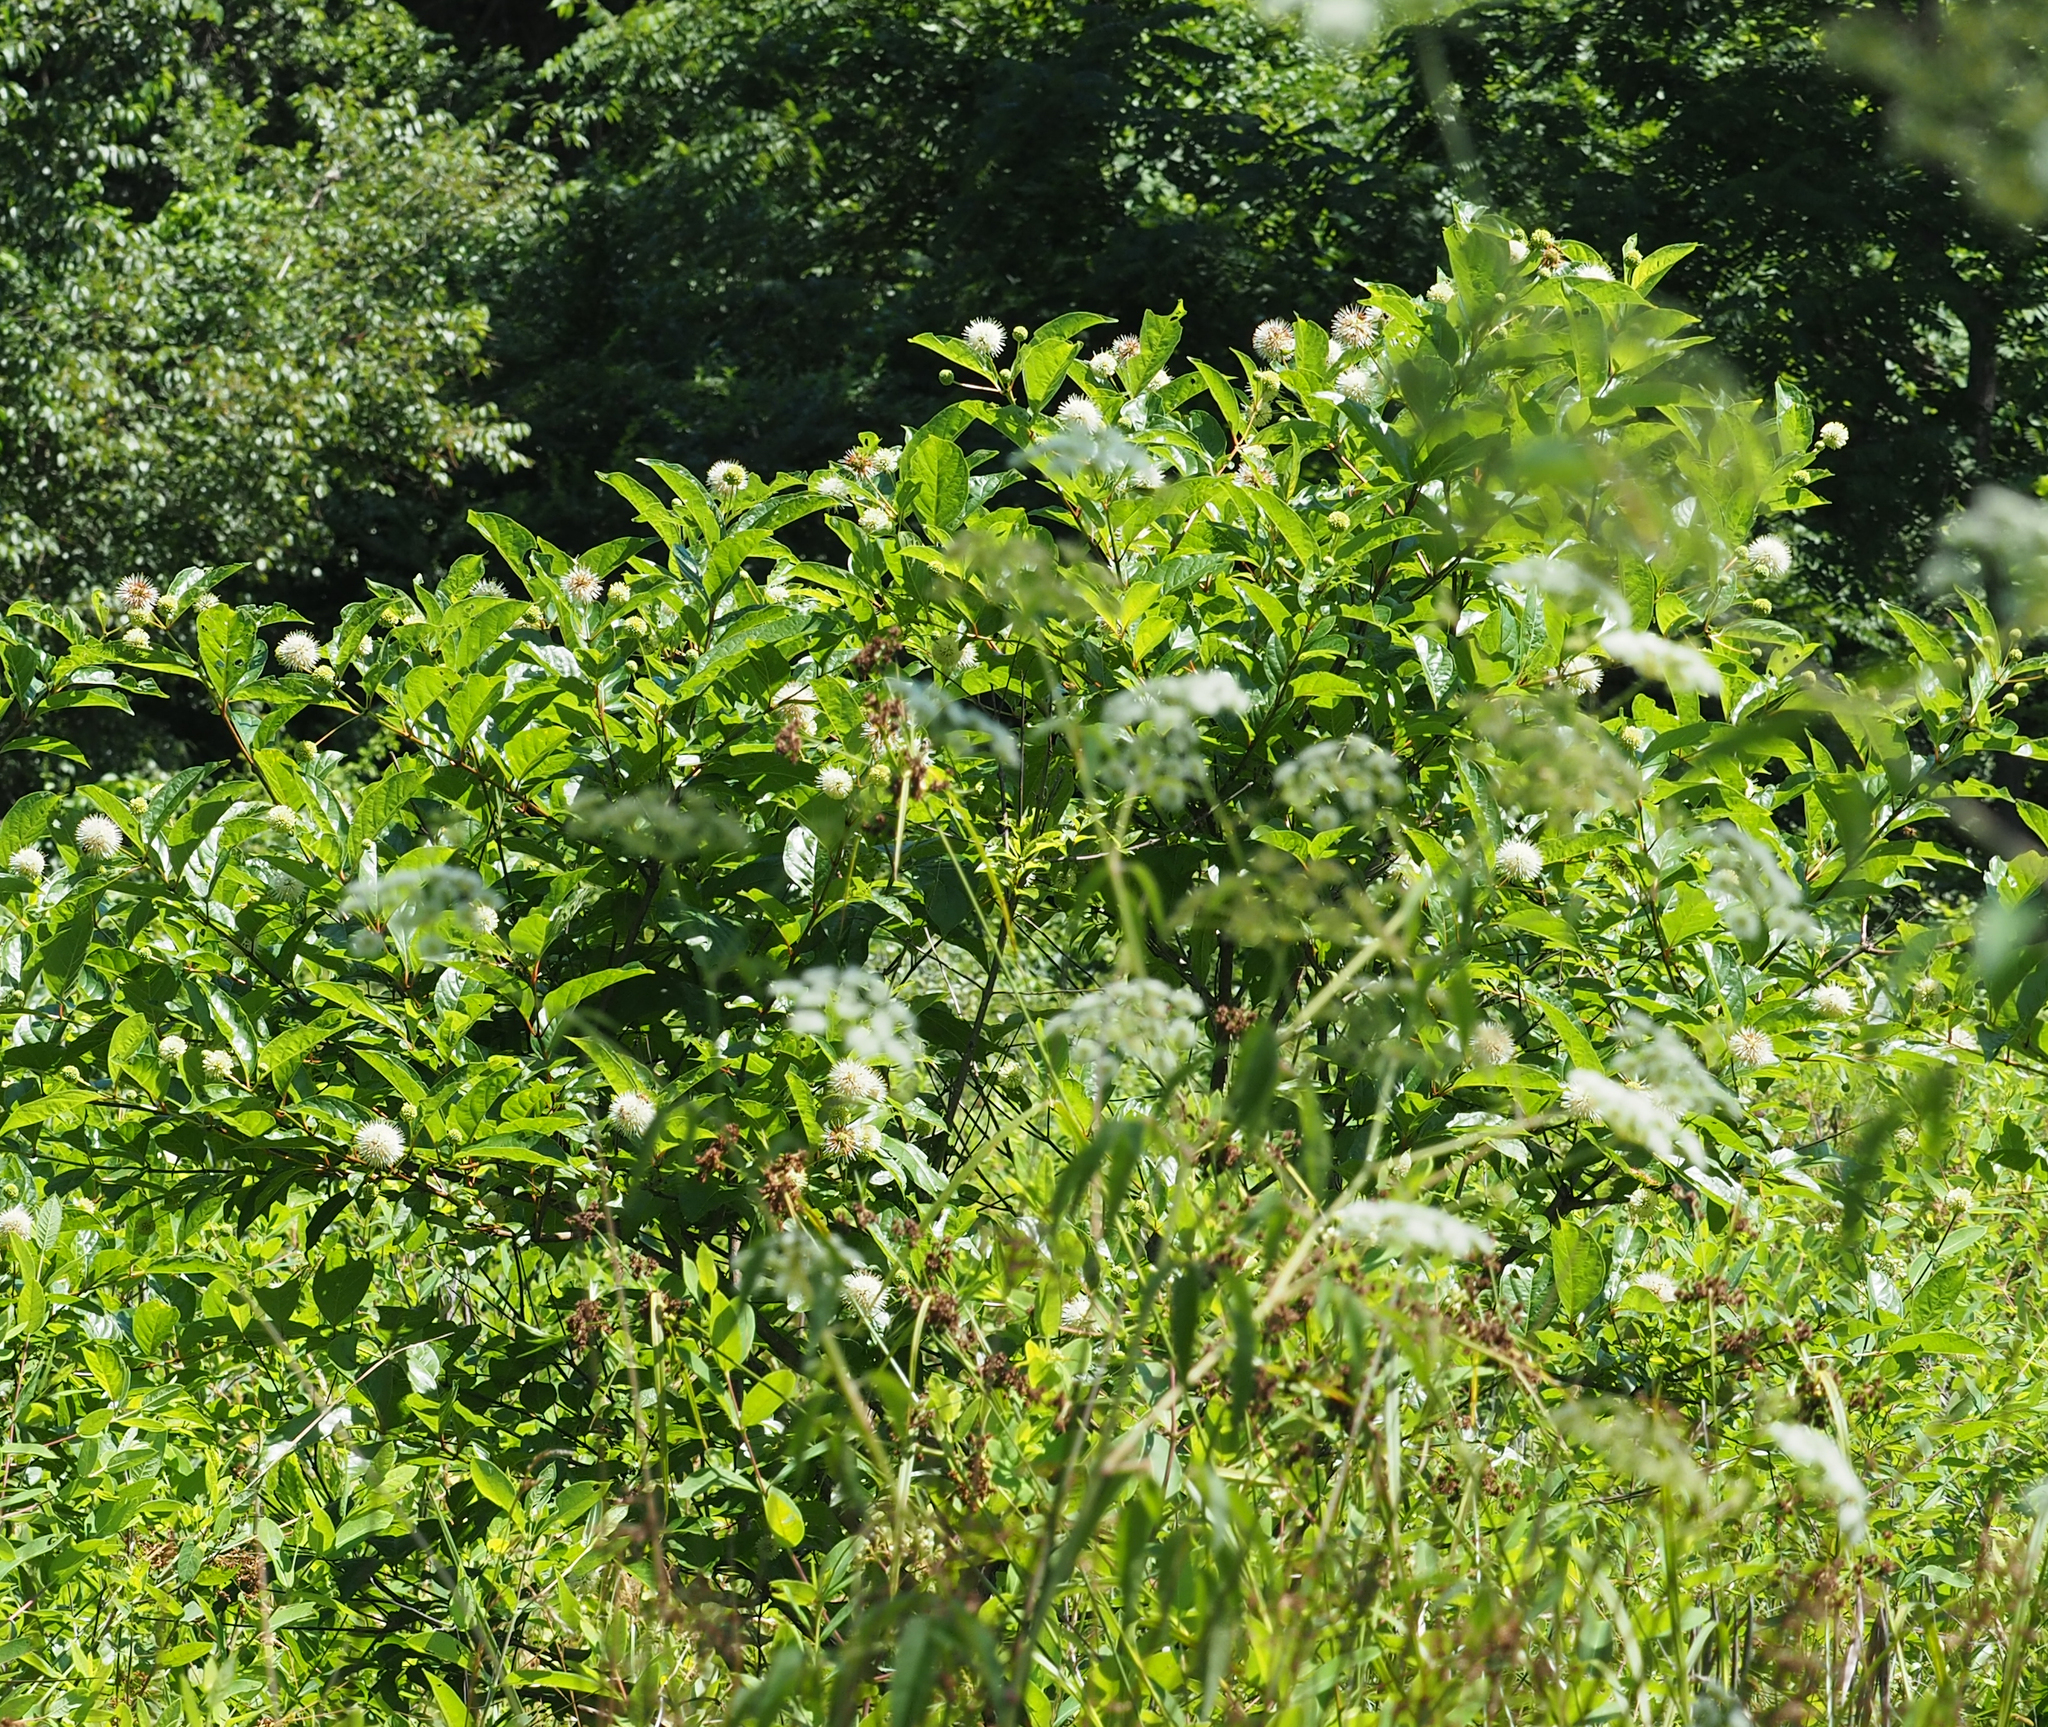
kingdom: Plantae
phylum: Tracheophyta
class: Magnoliopsida
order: Gentianales
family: Rubiaceae
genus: Cephalanthus
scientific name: Cephalanthus occidentalis
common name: Button-willow
